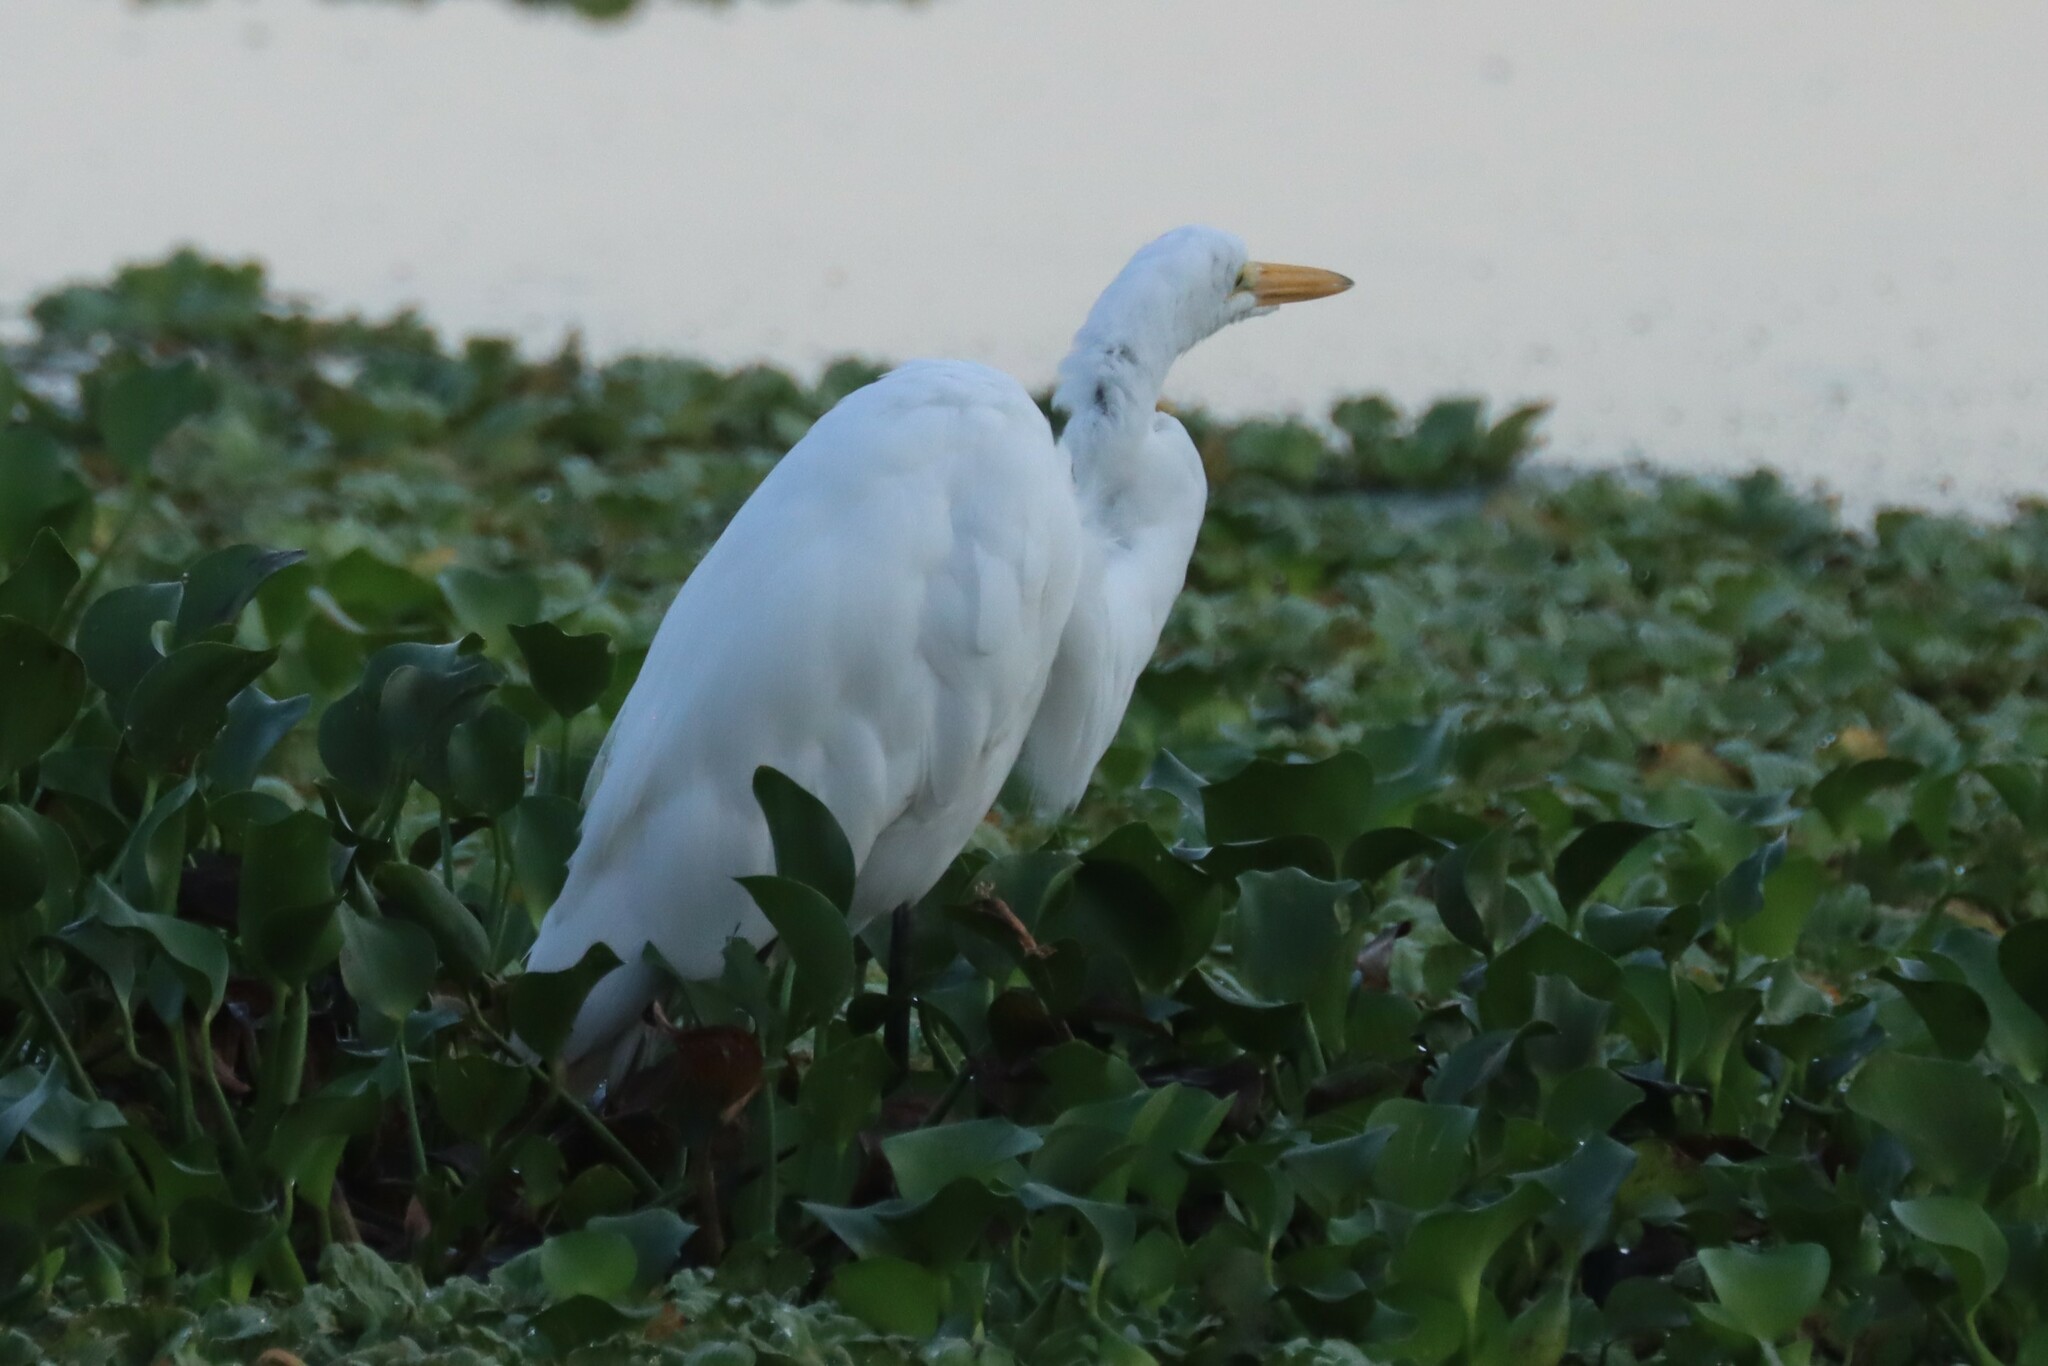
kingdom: Animalia
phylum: Chordata
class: Aves
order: Pelecaniformes
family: Ardeidae
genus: Ardea
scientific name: Ardea alba
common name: Great egret
